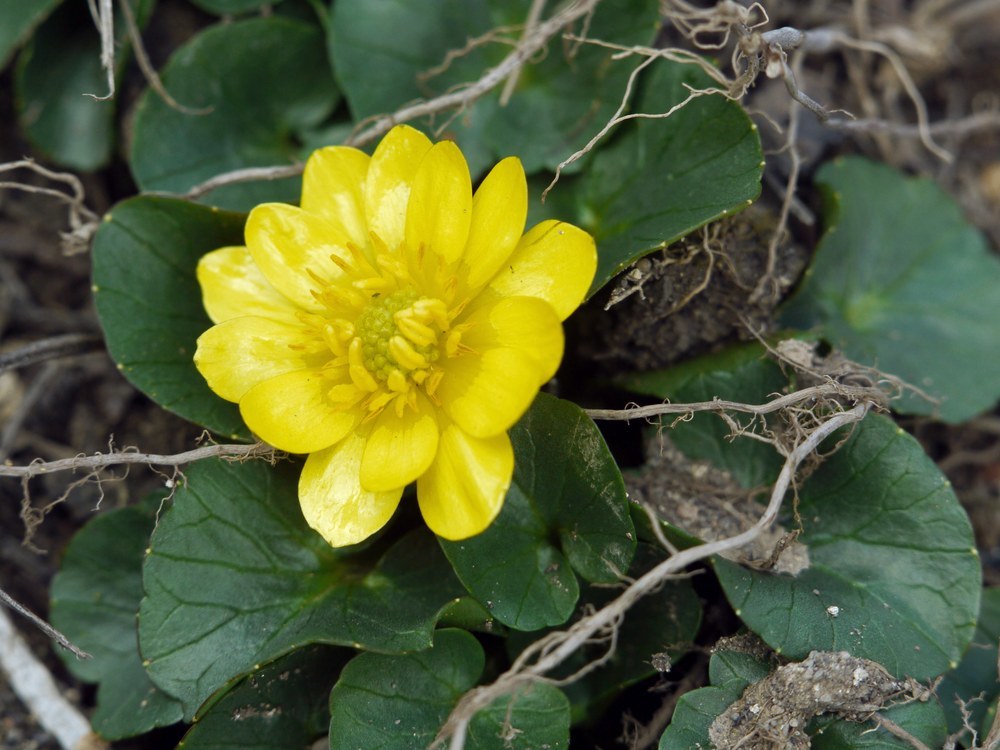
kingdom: Plantae
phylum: Tracheophyta
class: Magnoliopsida
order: Ranunculales
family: Ranunculaceae
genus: Ficaria
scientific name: Ficaria verna
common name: Lesser celandine
